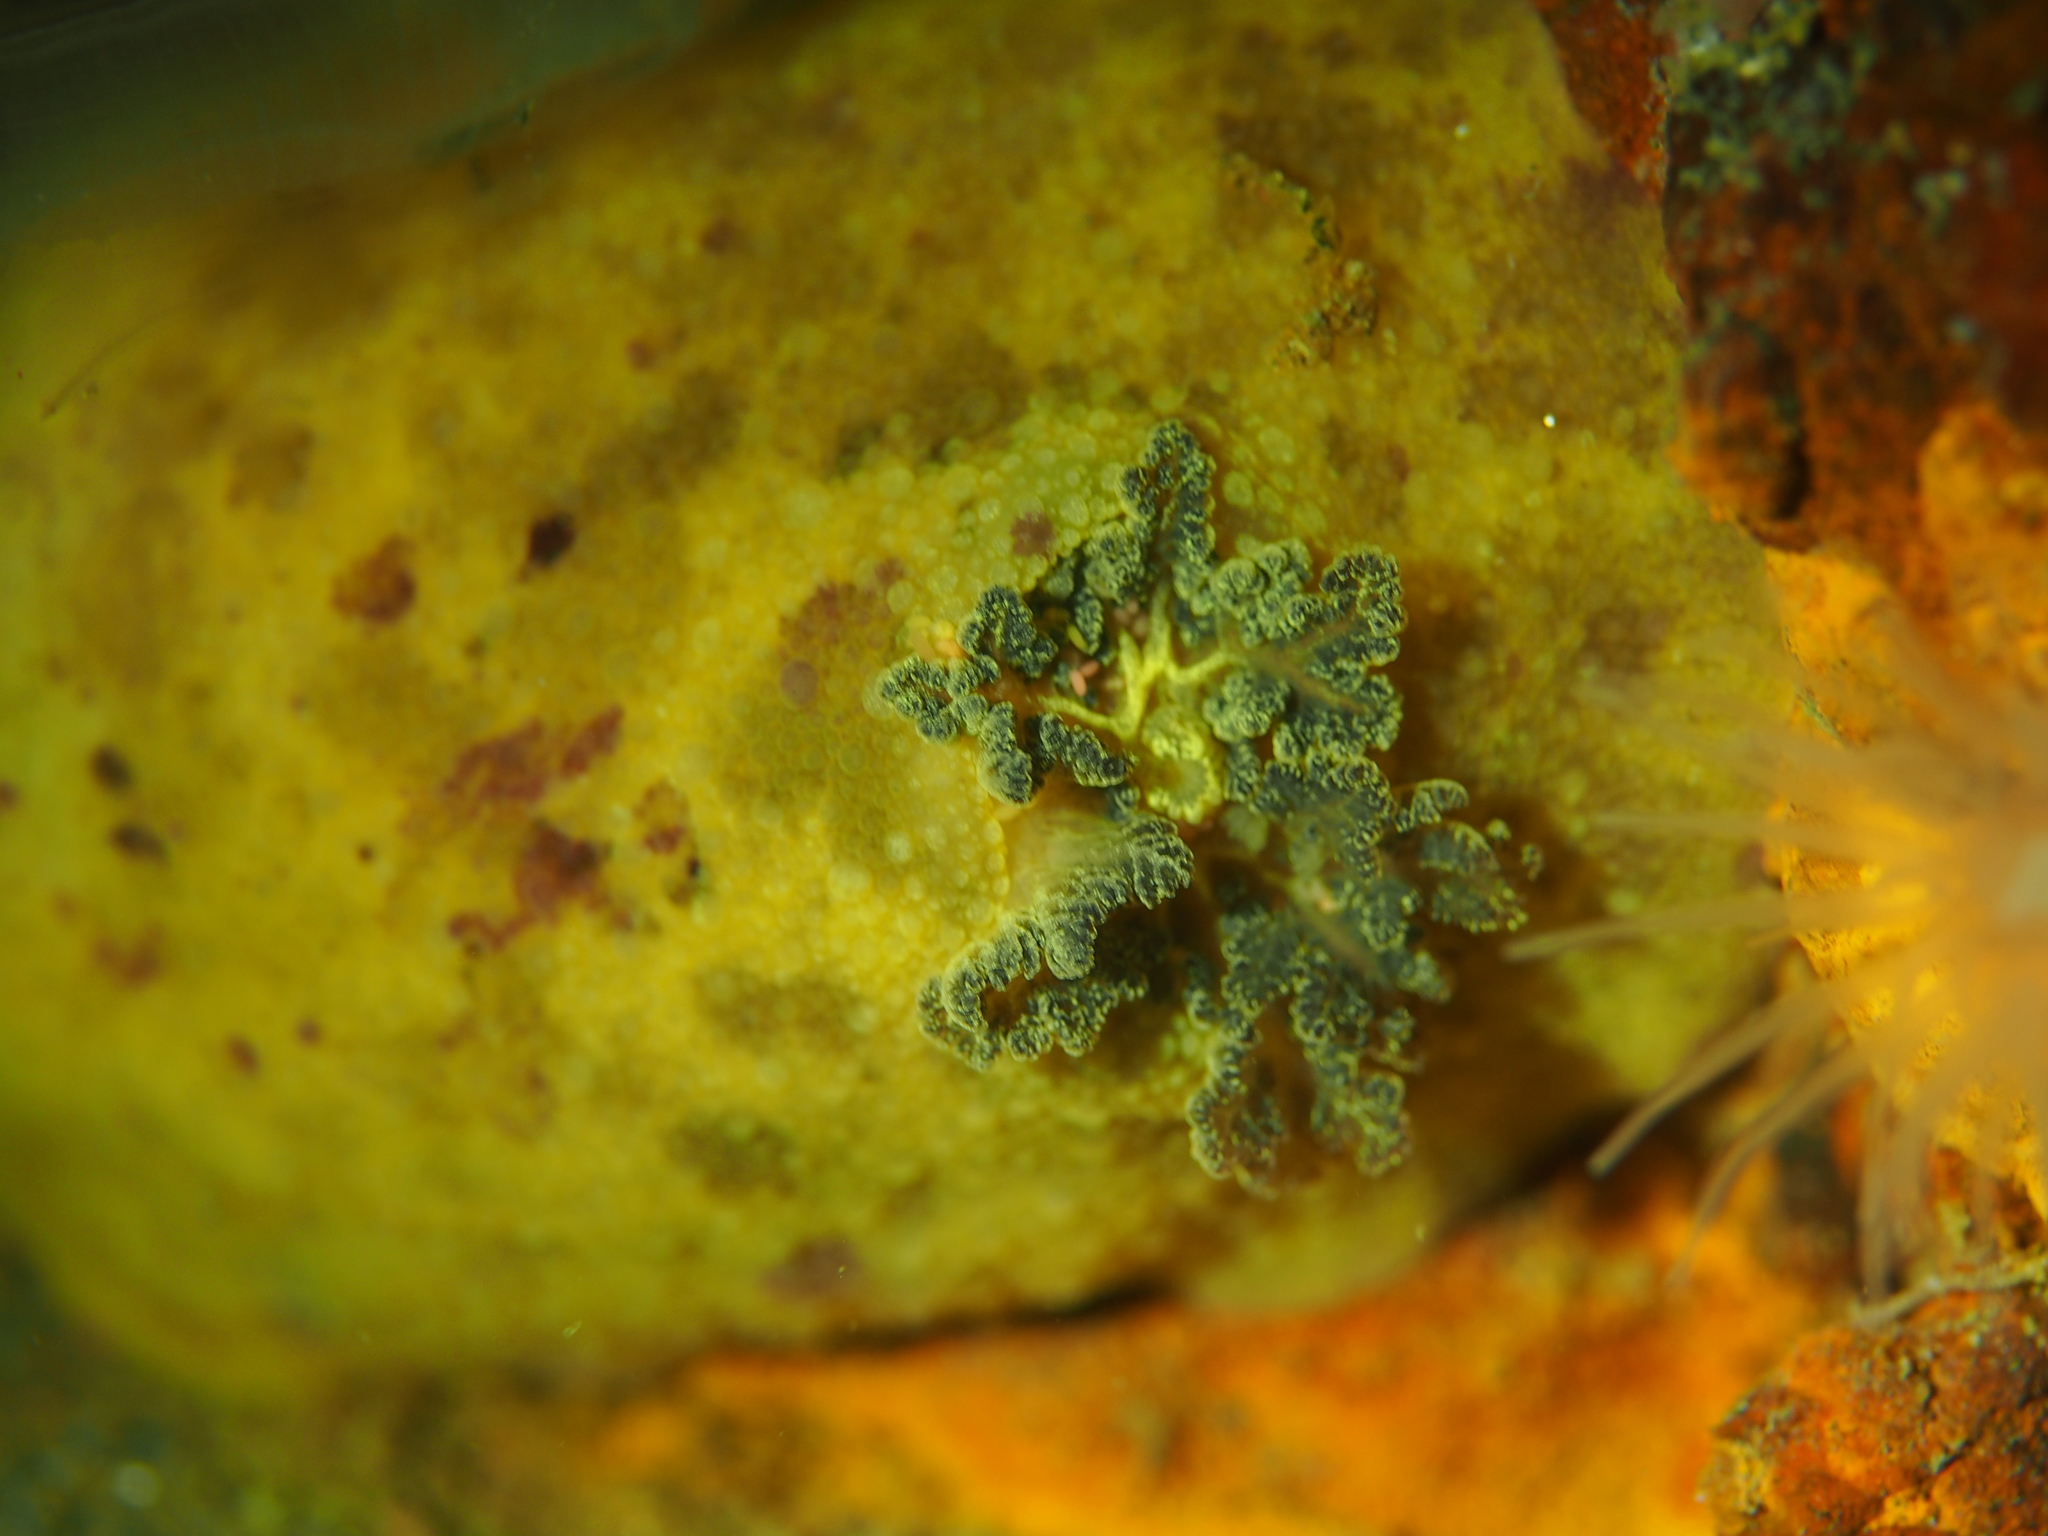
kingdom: Animalia
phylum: Mollusca
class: Gastropoda
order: Nudibranchia
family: Dorididae
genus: Doris
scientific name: Doris pseudoargus
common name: Sea lemon
